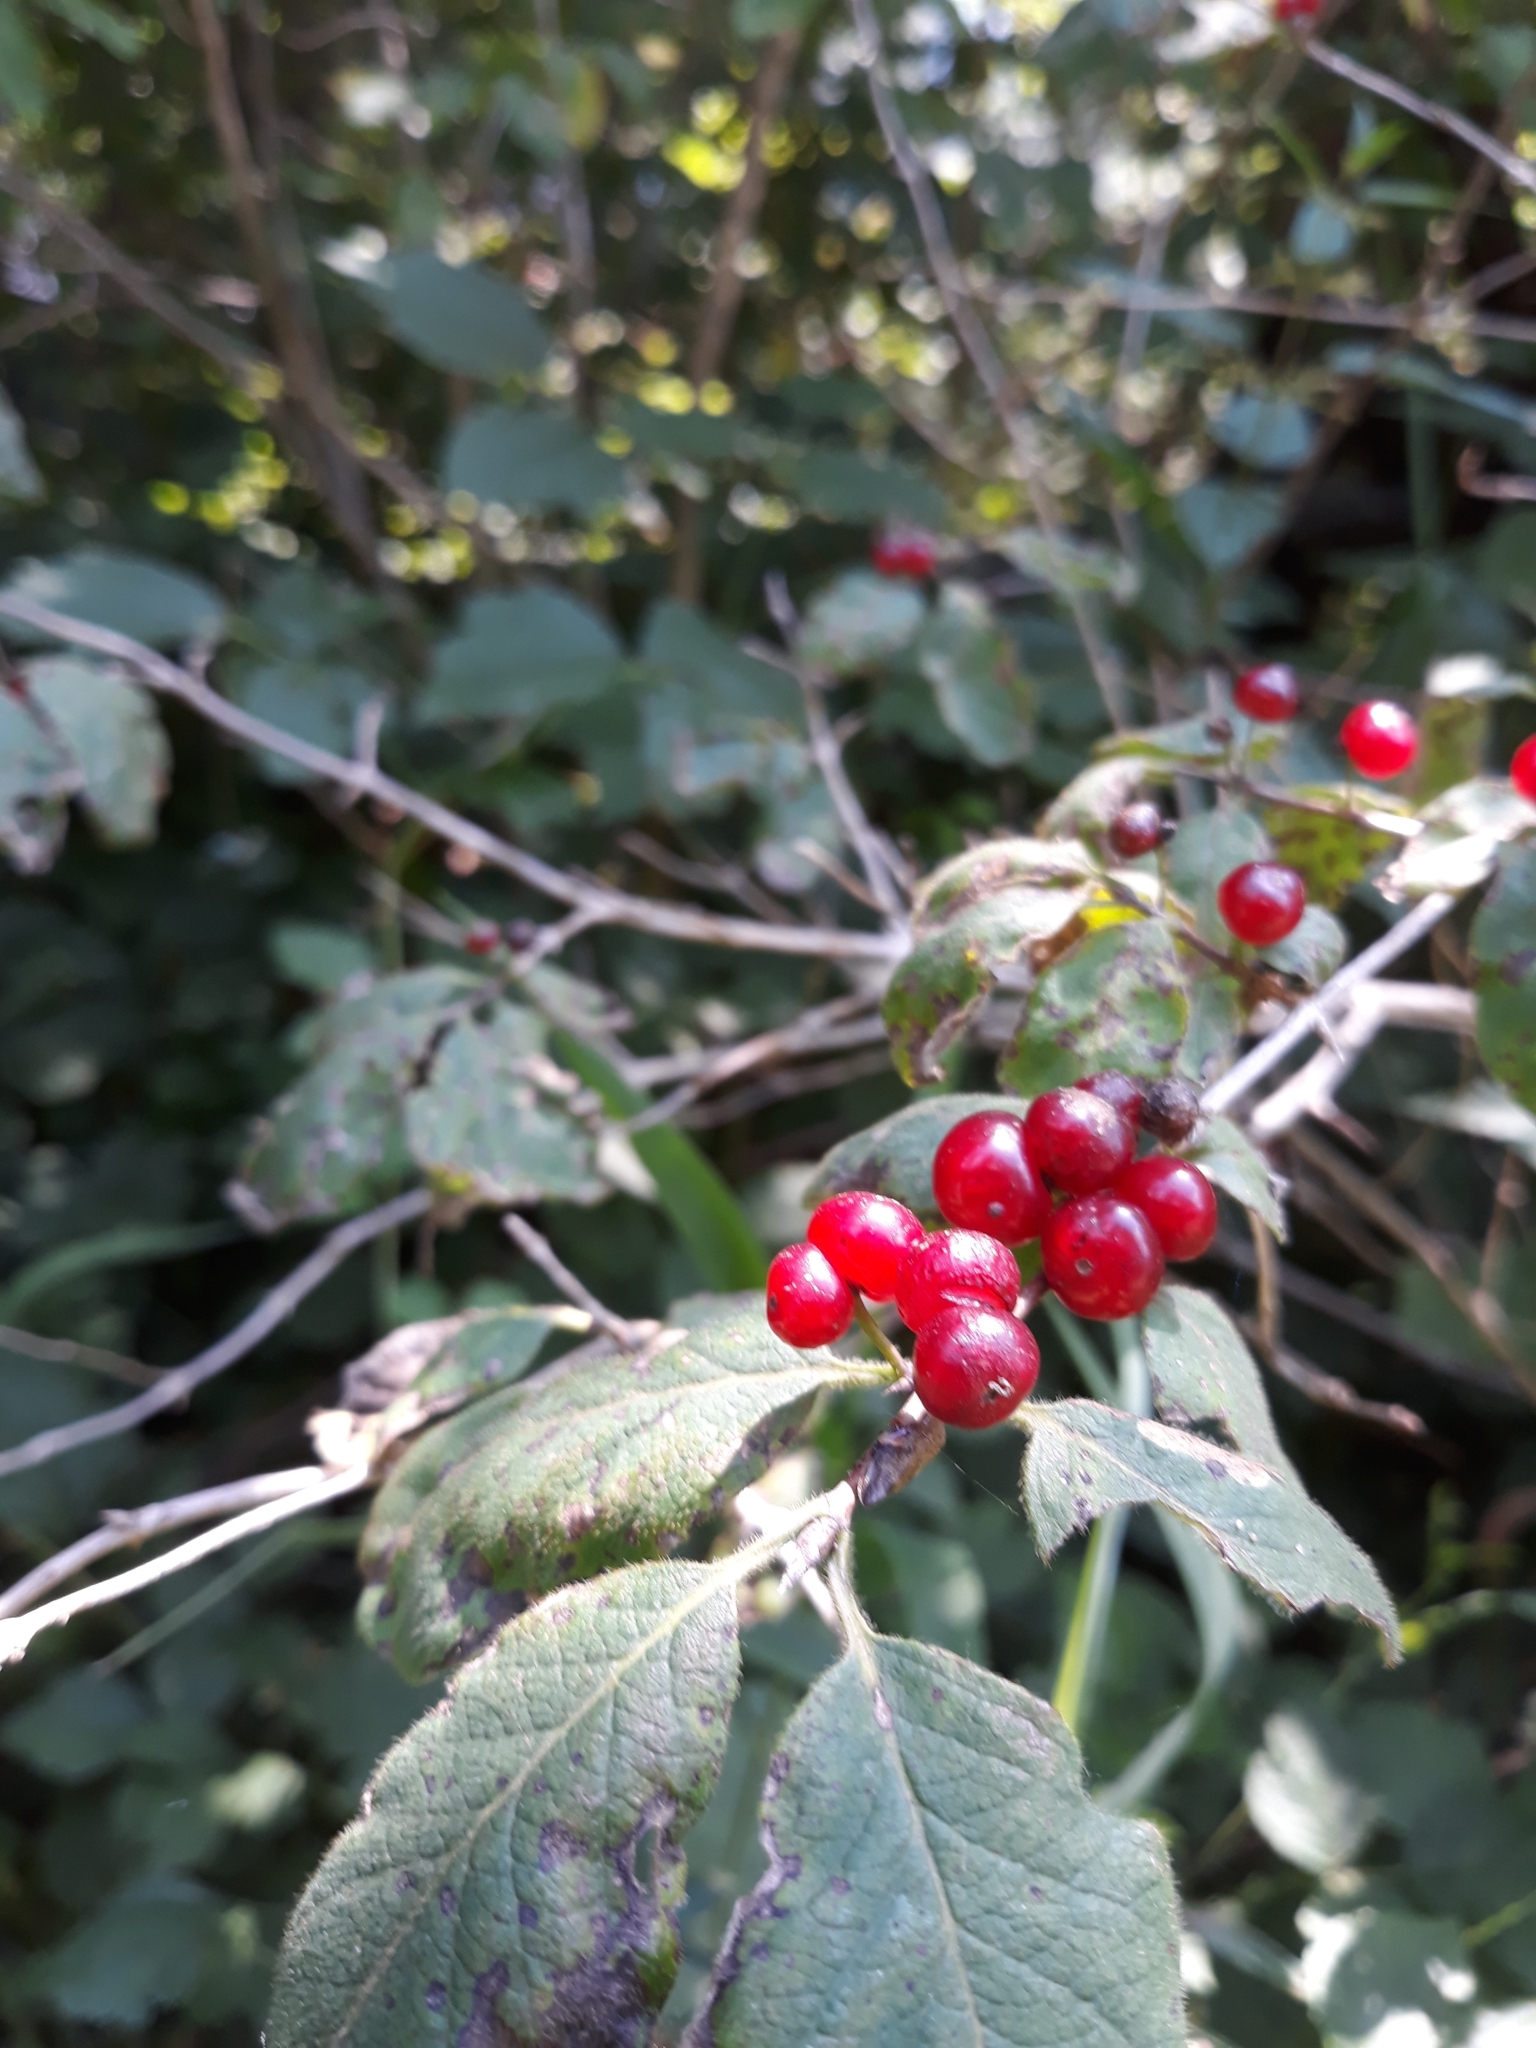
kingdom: Plantae
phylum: Tracheophyta
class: Magnoliopsida
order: Dipsacales
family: Caprifoliaceae
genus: Lonicera
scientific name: Lonicera xylosteum
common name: Fly honeysuckle
